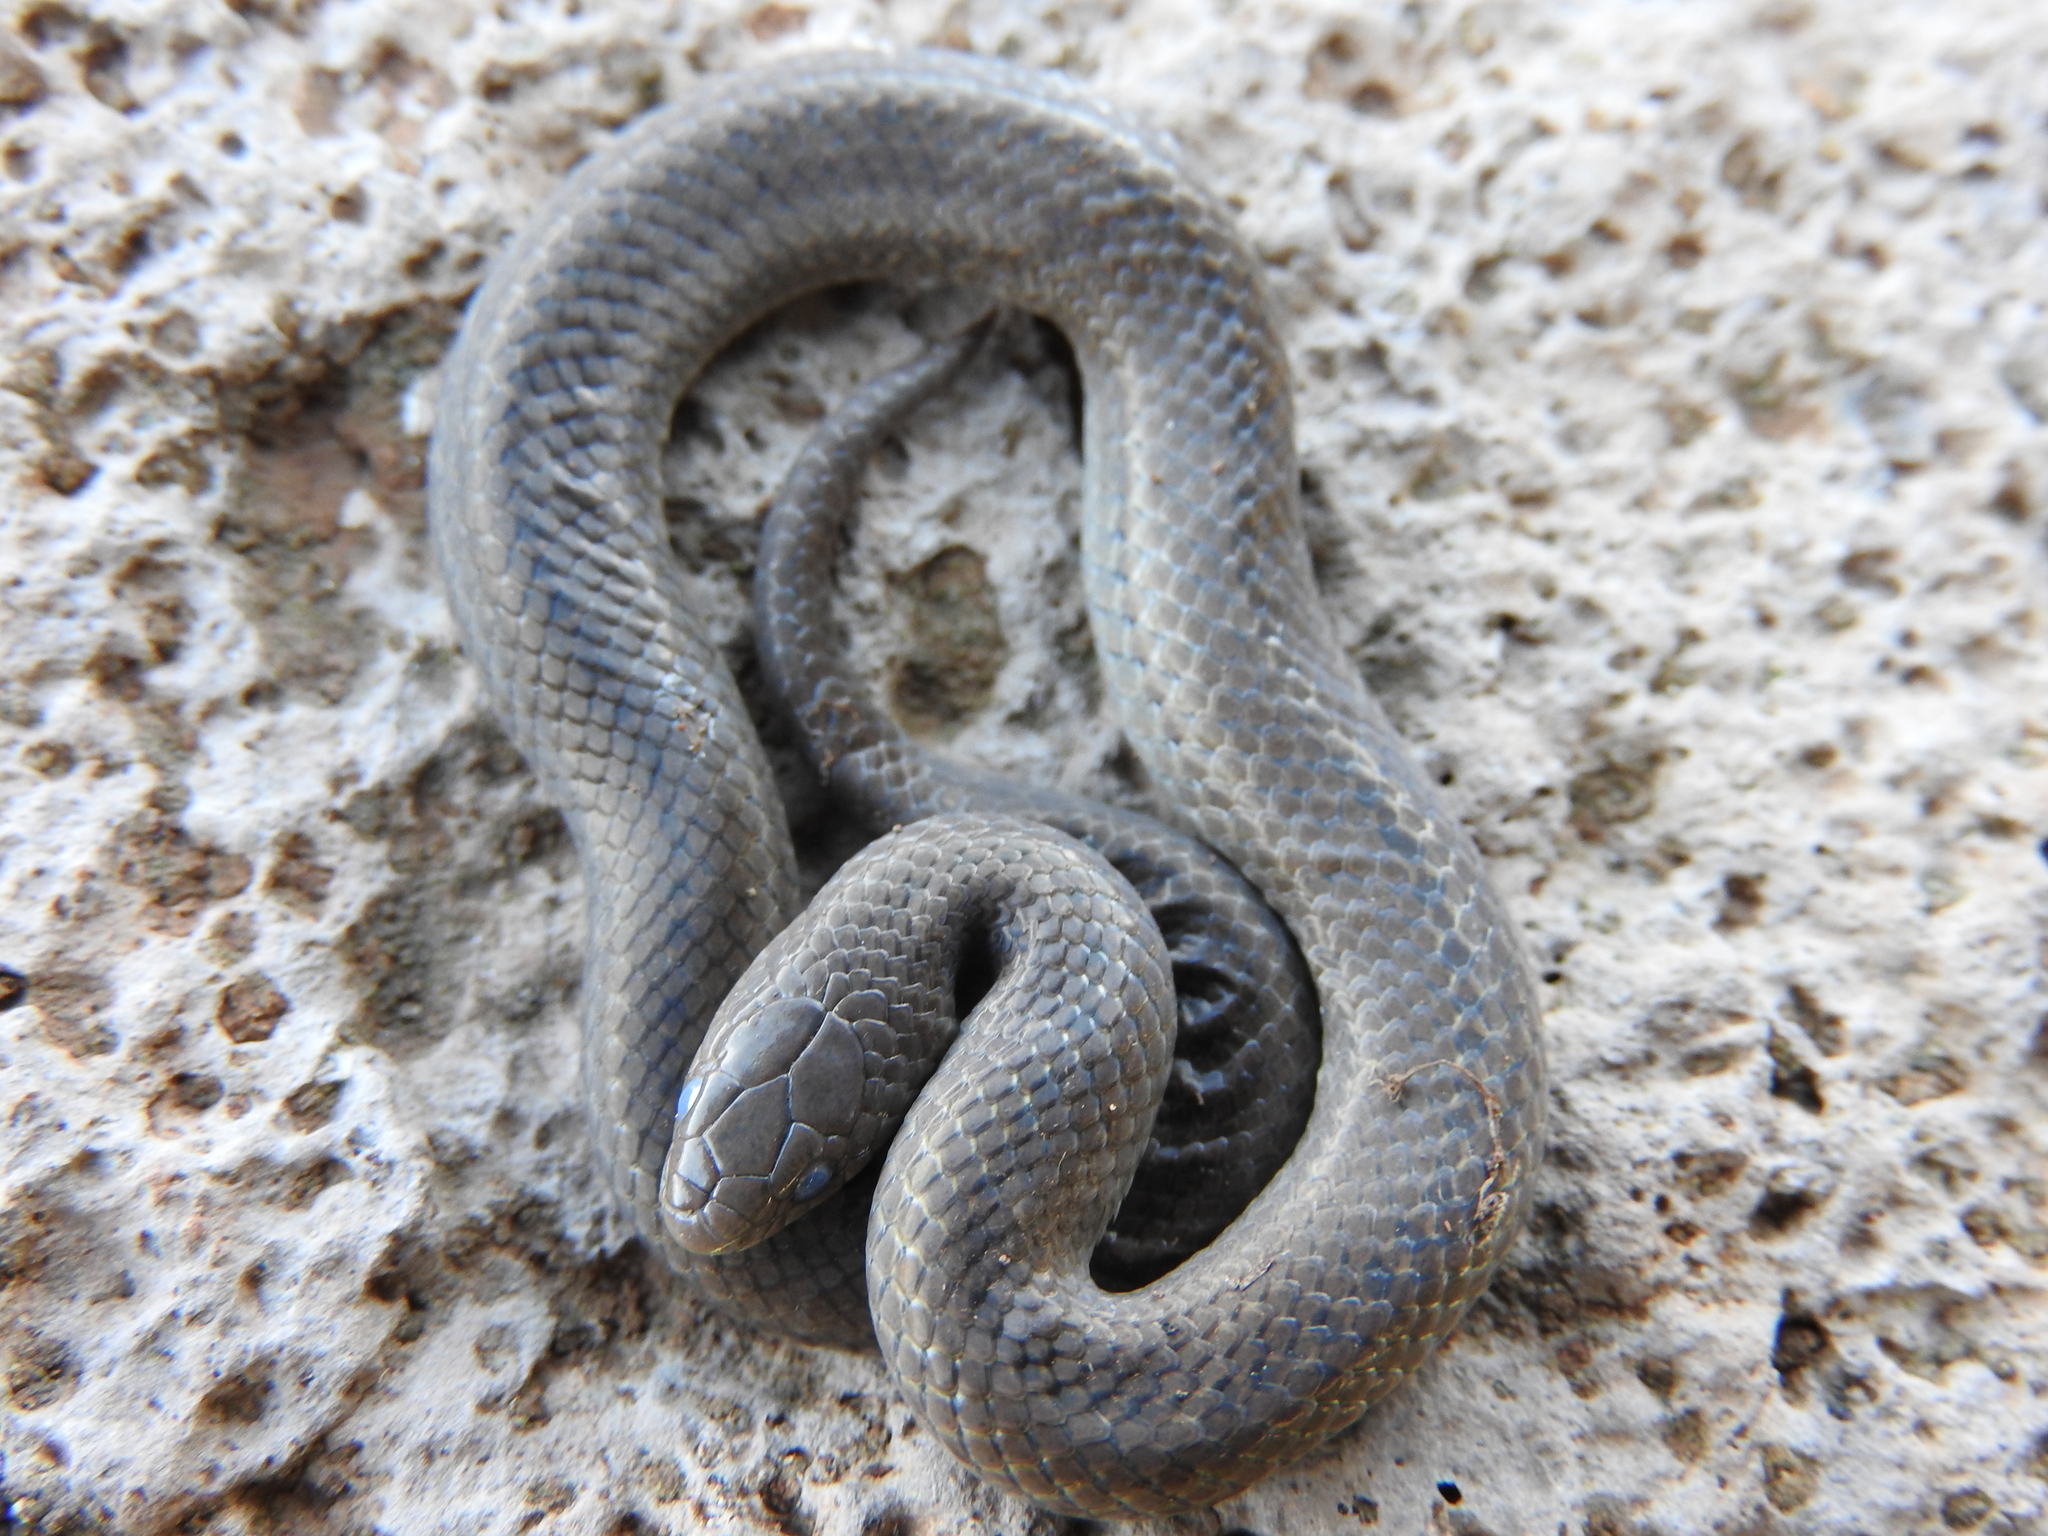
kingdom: Animalia
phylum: Chordata
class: Squamata
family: Colubridae
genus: Conopsis
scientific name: Conopsis lineata
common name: Lined tolucan earthsnake
